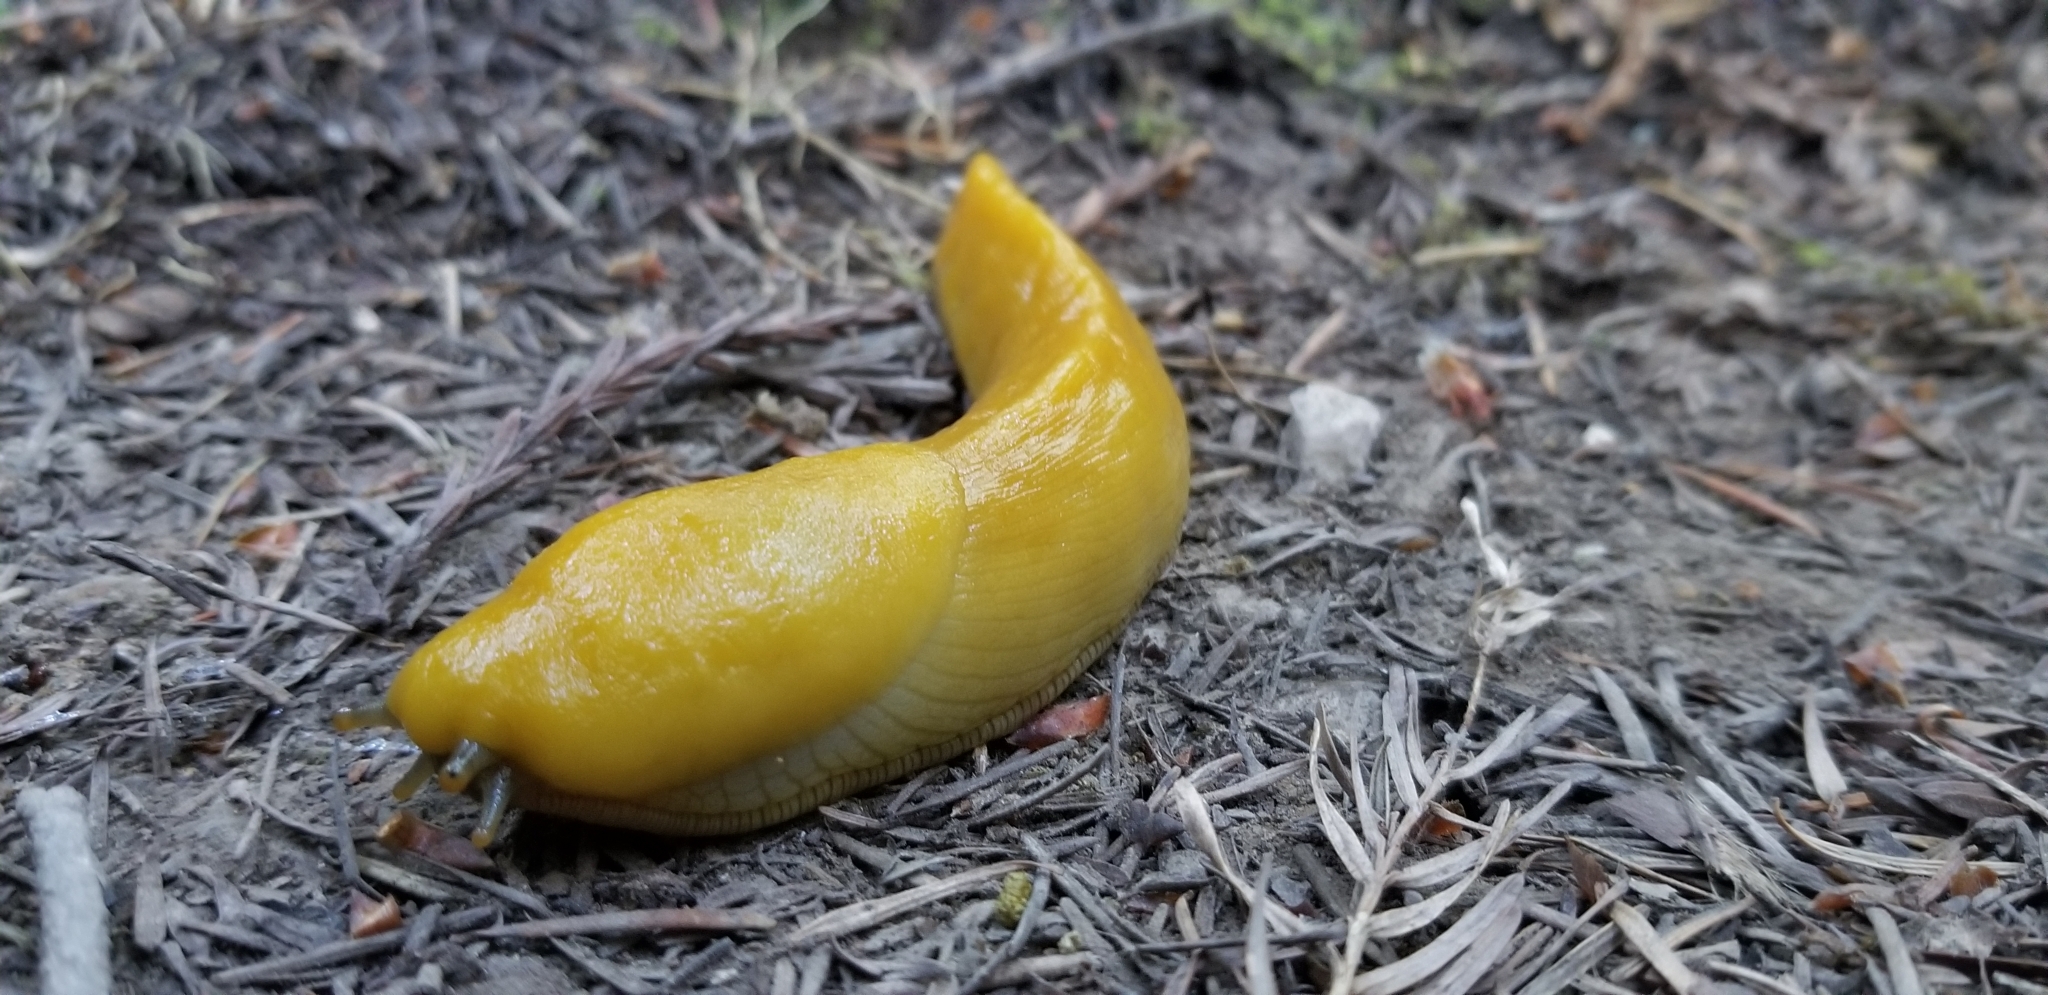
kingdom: Animalia
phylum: Mollusca
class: Gastropoda
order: Stylommatophora
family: Ariolimacidae
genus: Ariolimax
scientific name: Ariolimax californicus
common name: California banana slug
